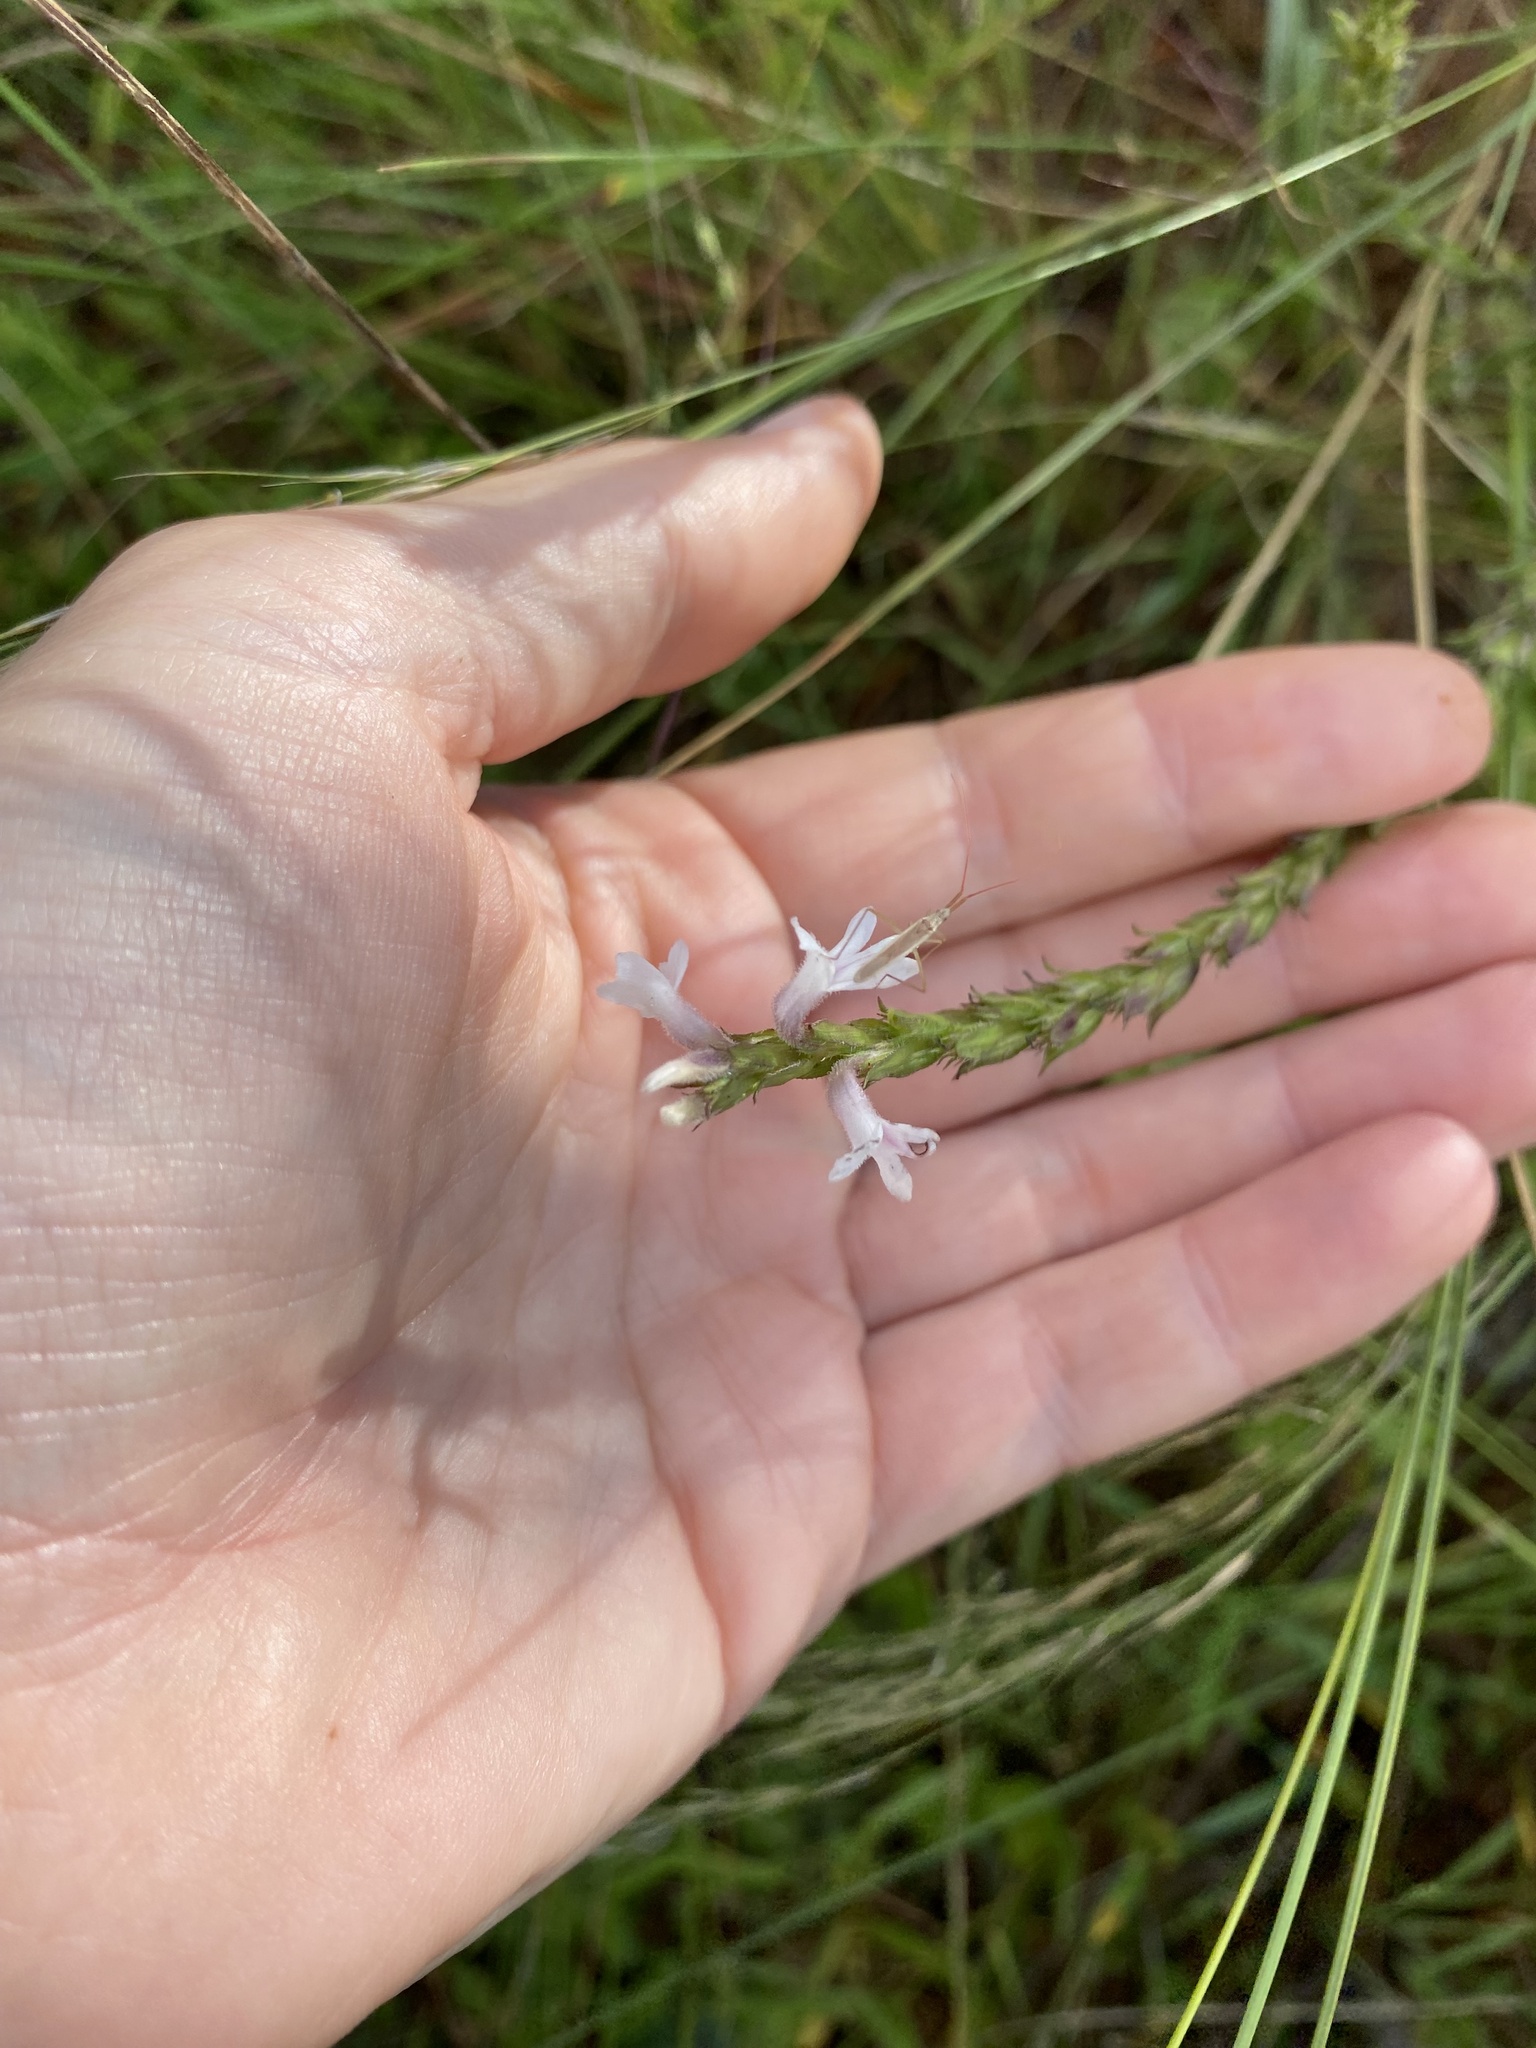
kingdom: Plantae
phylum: Tracheophyta
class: Magnoliopsida
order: Lamiales
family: Orobanchaceae
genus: Striga
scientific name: Striga bilabiata
